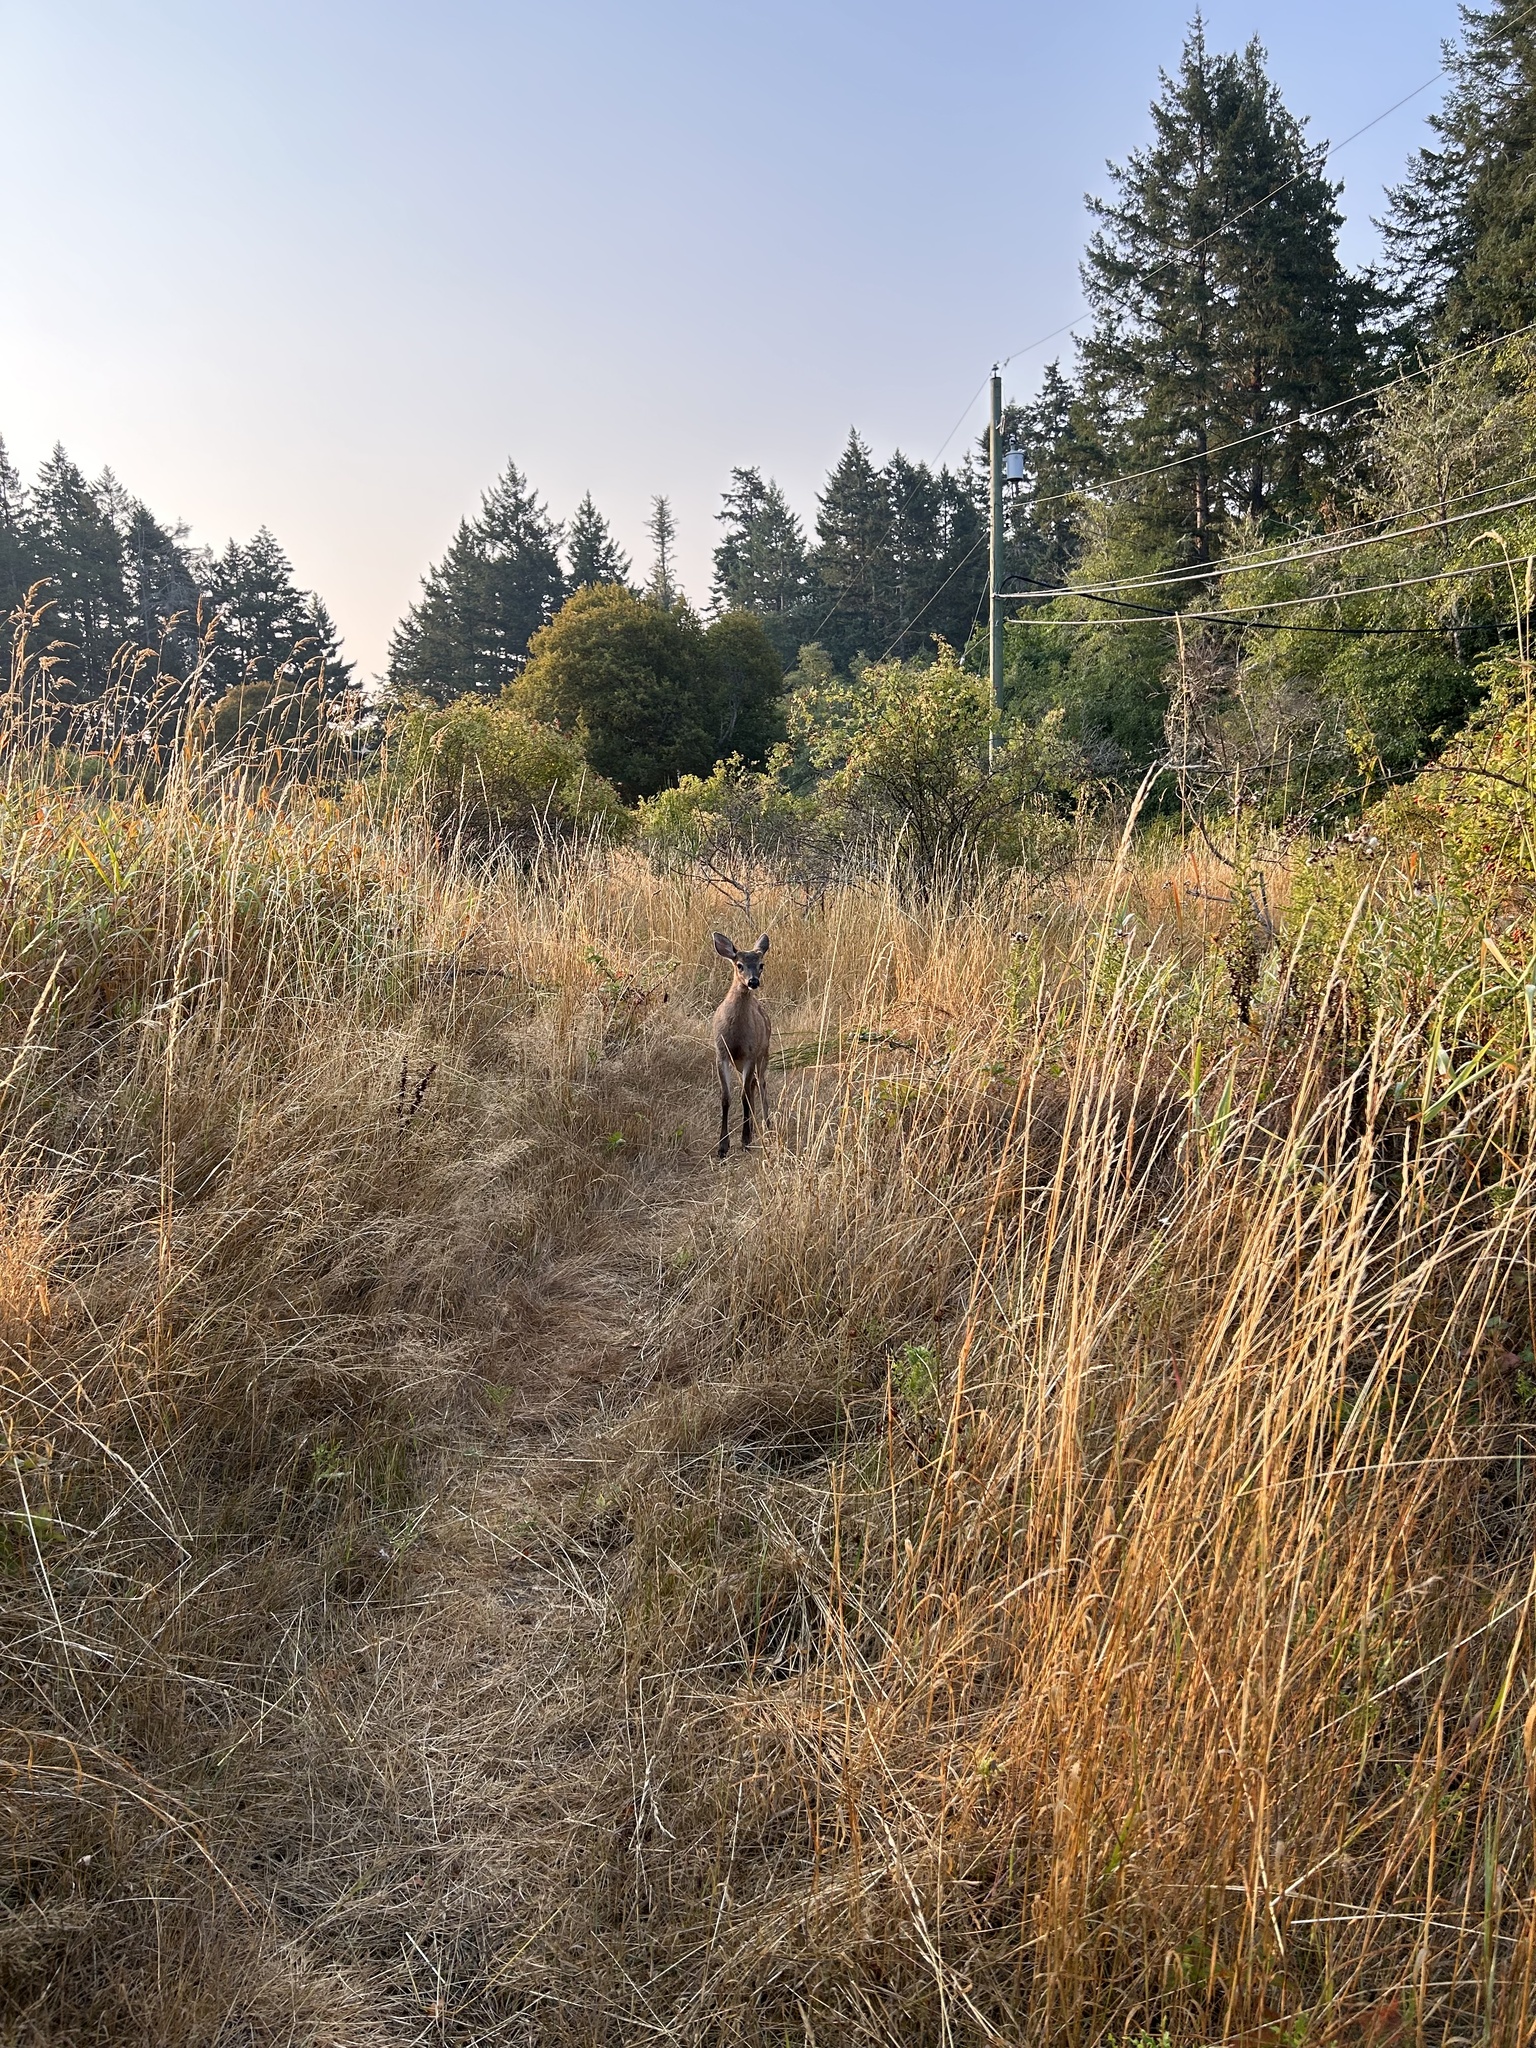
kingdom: Animalia
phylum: Chordata
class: Mammalia
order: Artiodactyla
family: Cervidae
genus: Odocoileus
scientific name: Odocoileus hemionus
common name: Mule deer
